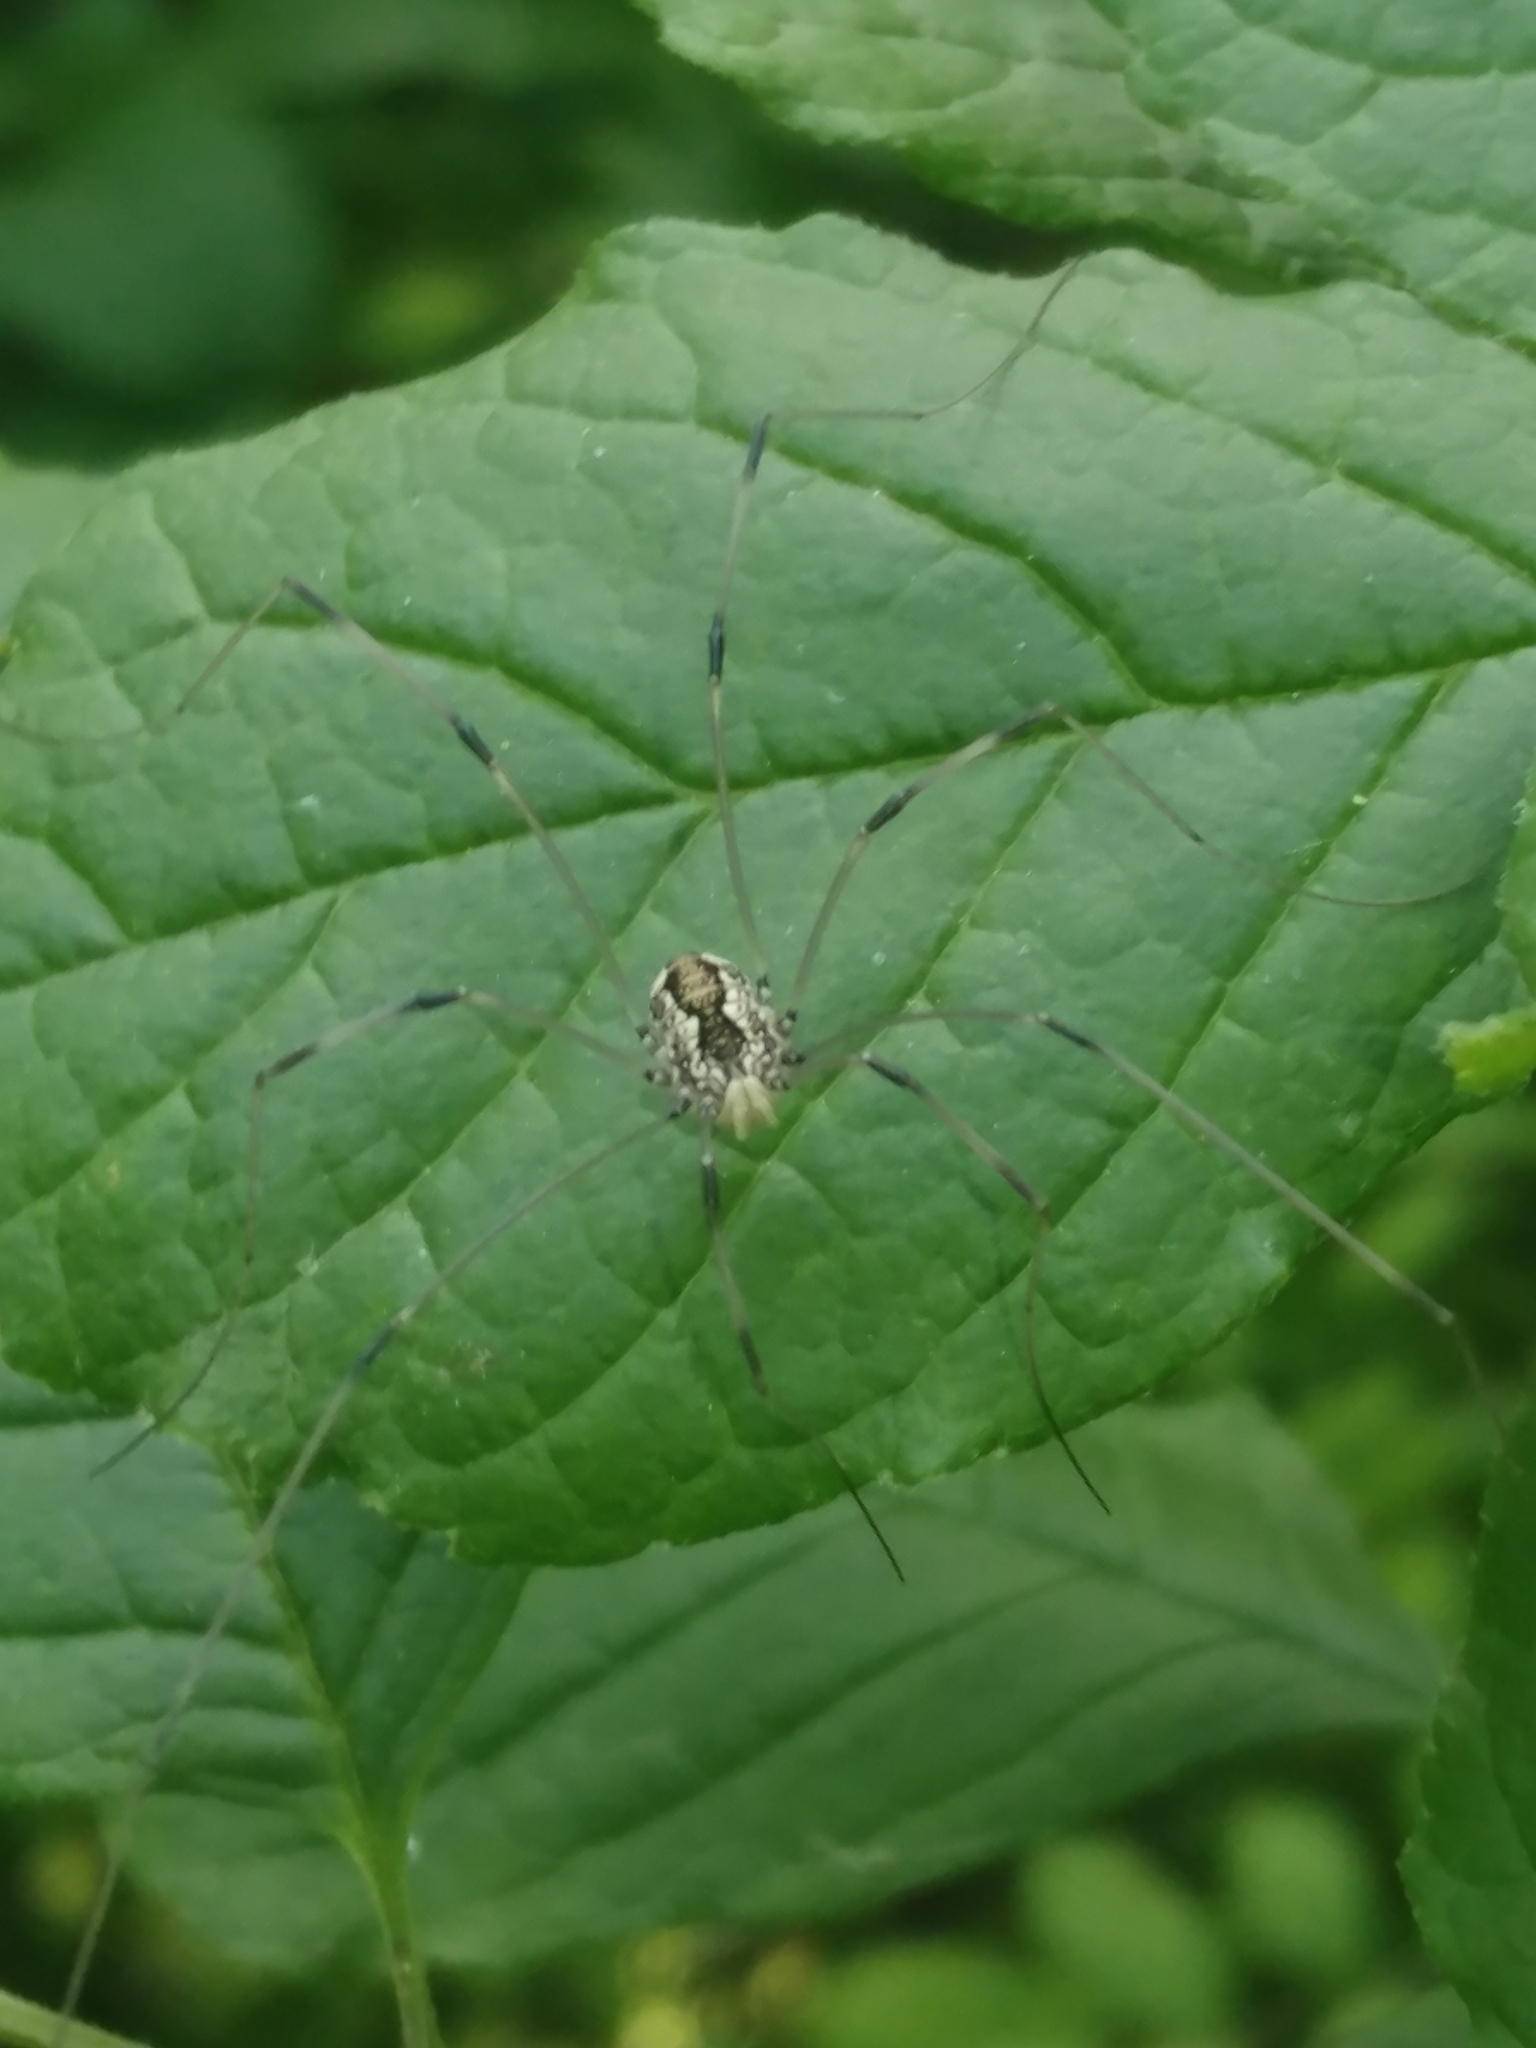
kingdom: Animalia
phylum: Arthropoda
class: Arachnida
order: Opiliones
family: Sclerosomatidae
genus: Leiobunum
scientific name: Leiobunum vittatum
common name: Eastern harvestman
